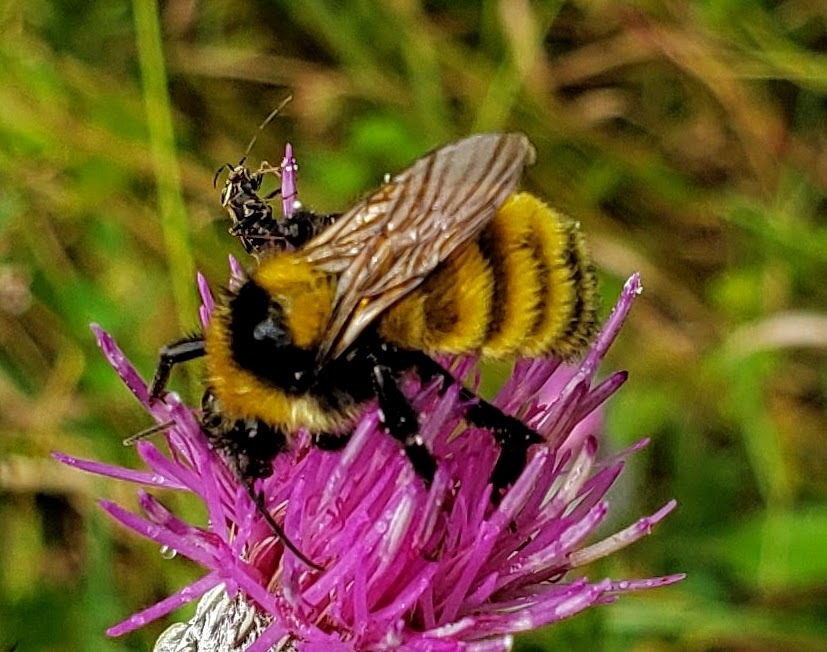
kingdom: Animalia
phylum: Arthropoda
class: Insecta
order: Hymenoptera
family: Apidae
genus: Bombus
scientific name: Bombus borealis
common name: Northern amber bumble bee
